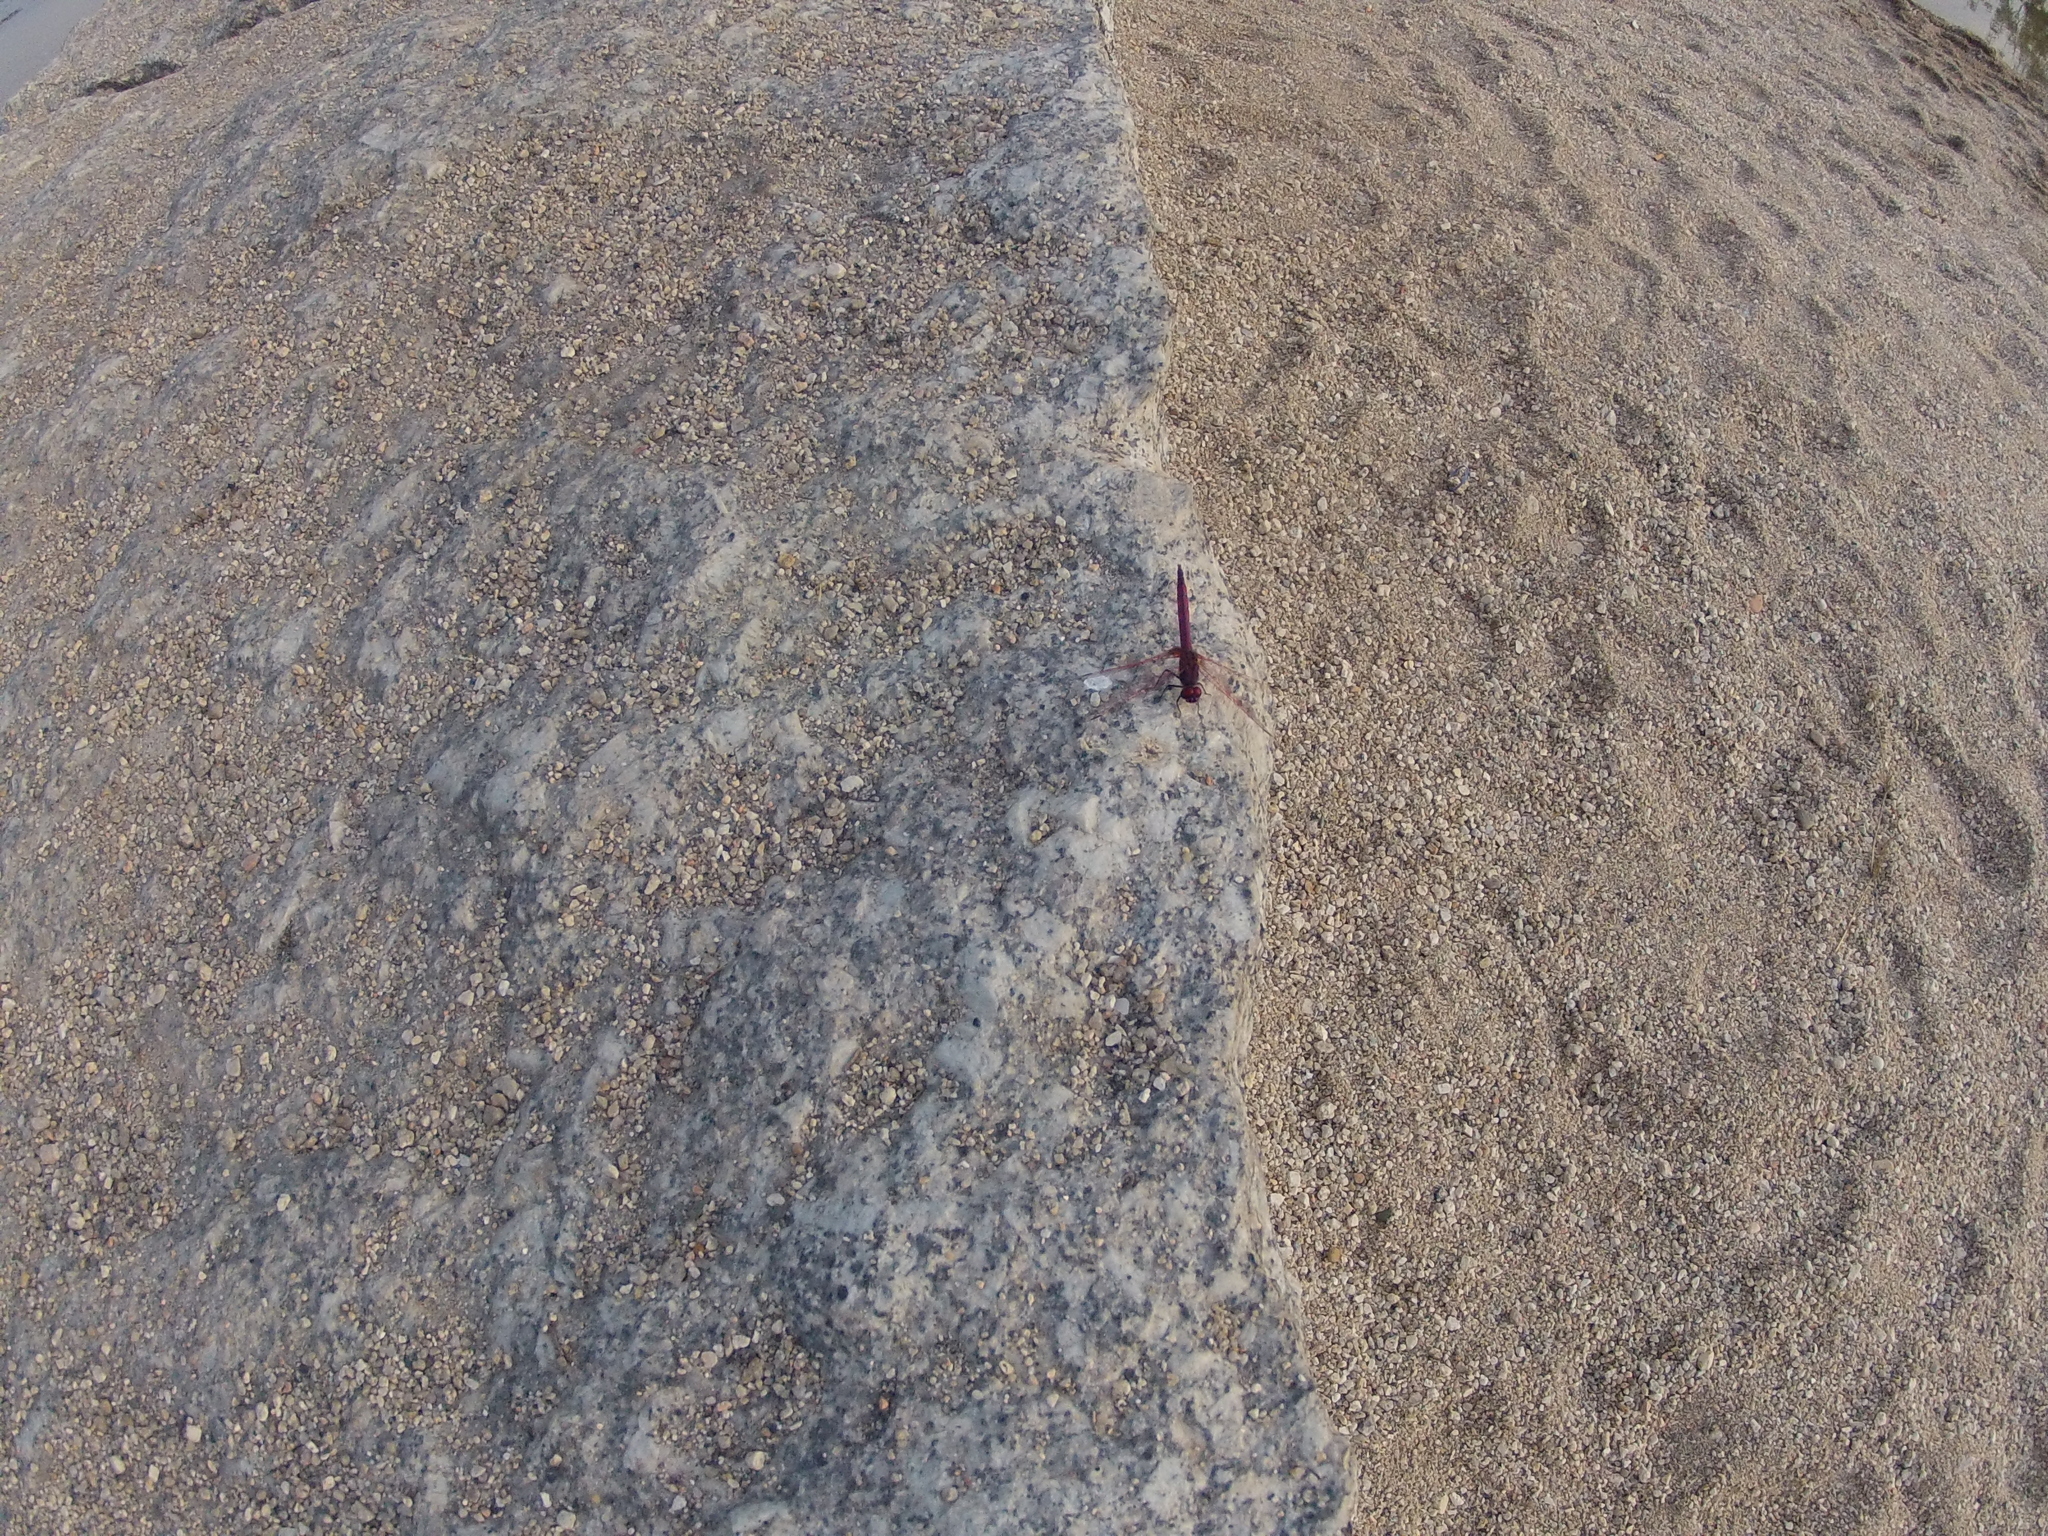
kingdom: Animalia
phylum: Arthropoda
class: Insecta
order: Odonata
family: Libellulidae
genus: Trithemis
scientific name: Trithemis annulata
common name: Violet dropwing
